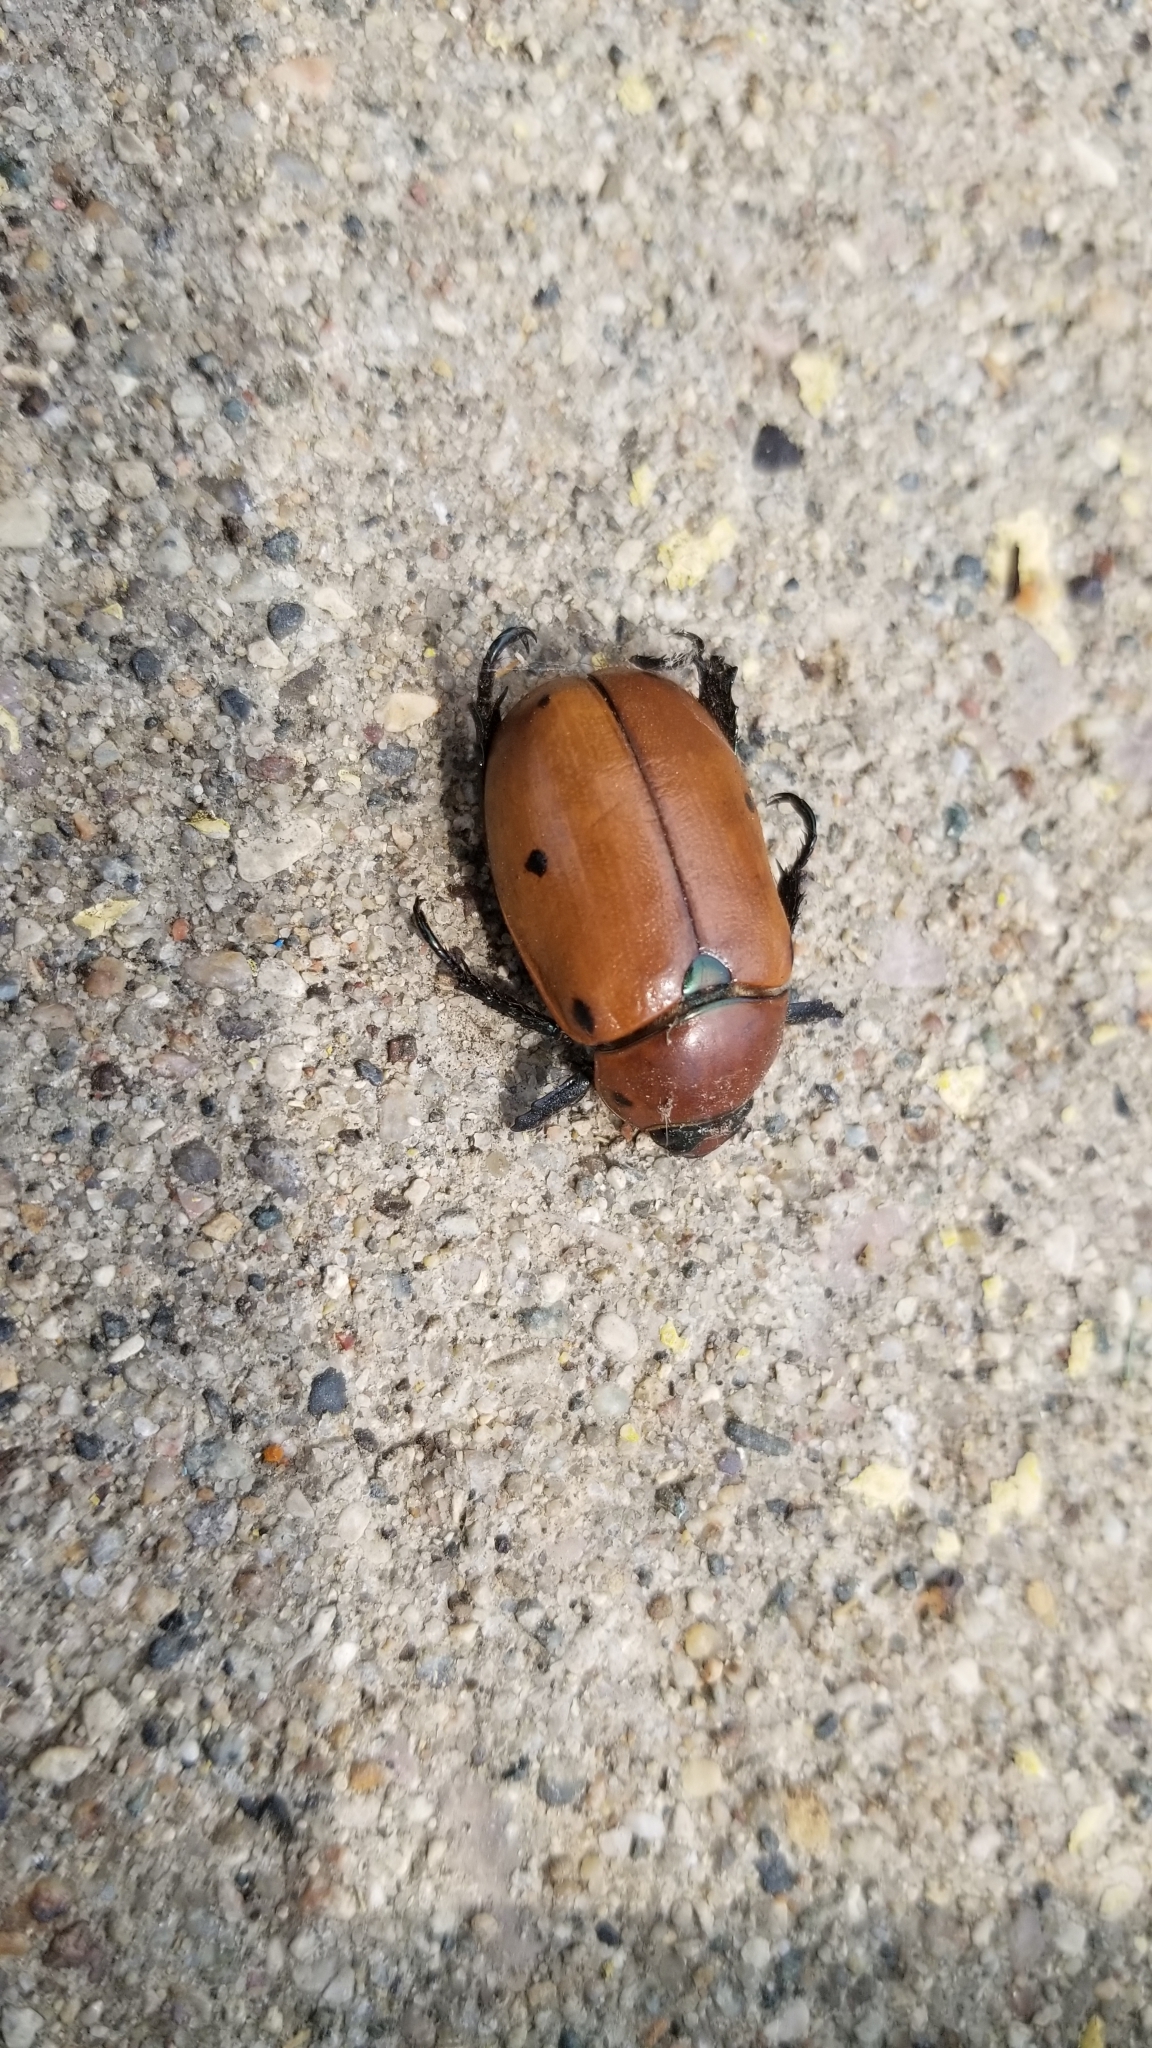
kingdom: Animalia
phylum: Arthropoda
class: Insecta
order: Coleoptera
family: Scarabaeidae
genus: Pelidnota
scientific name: Pelidnota punctata
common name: Grapevine beetle
